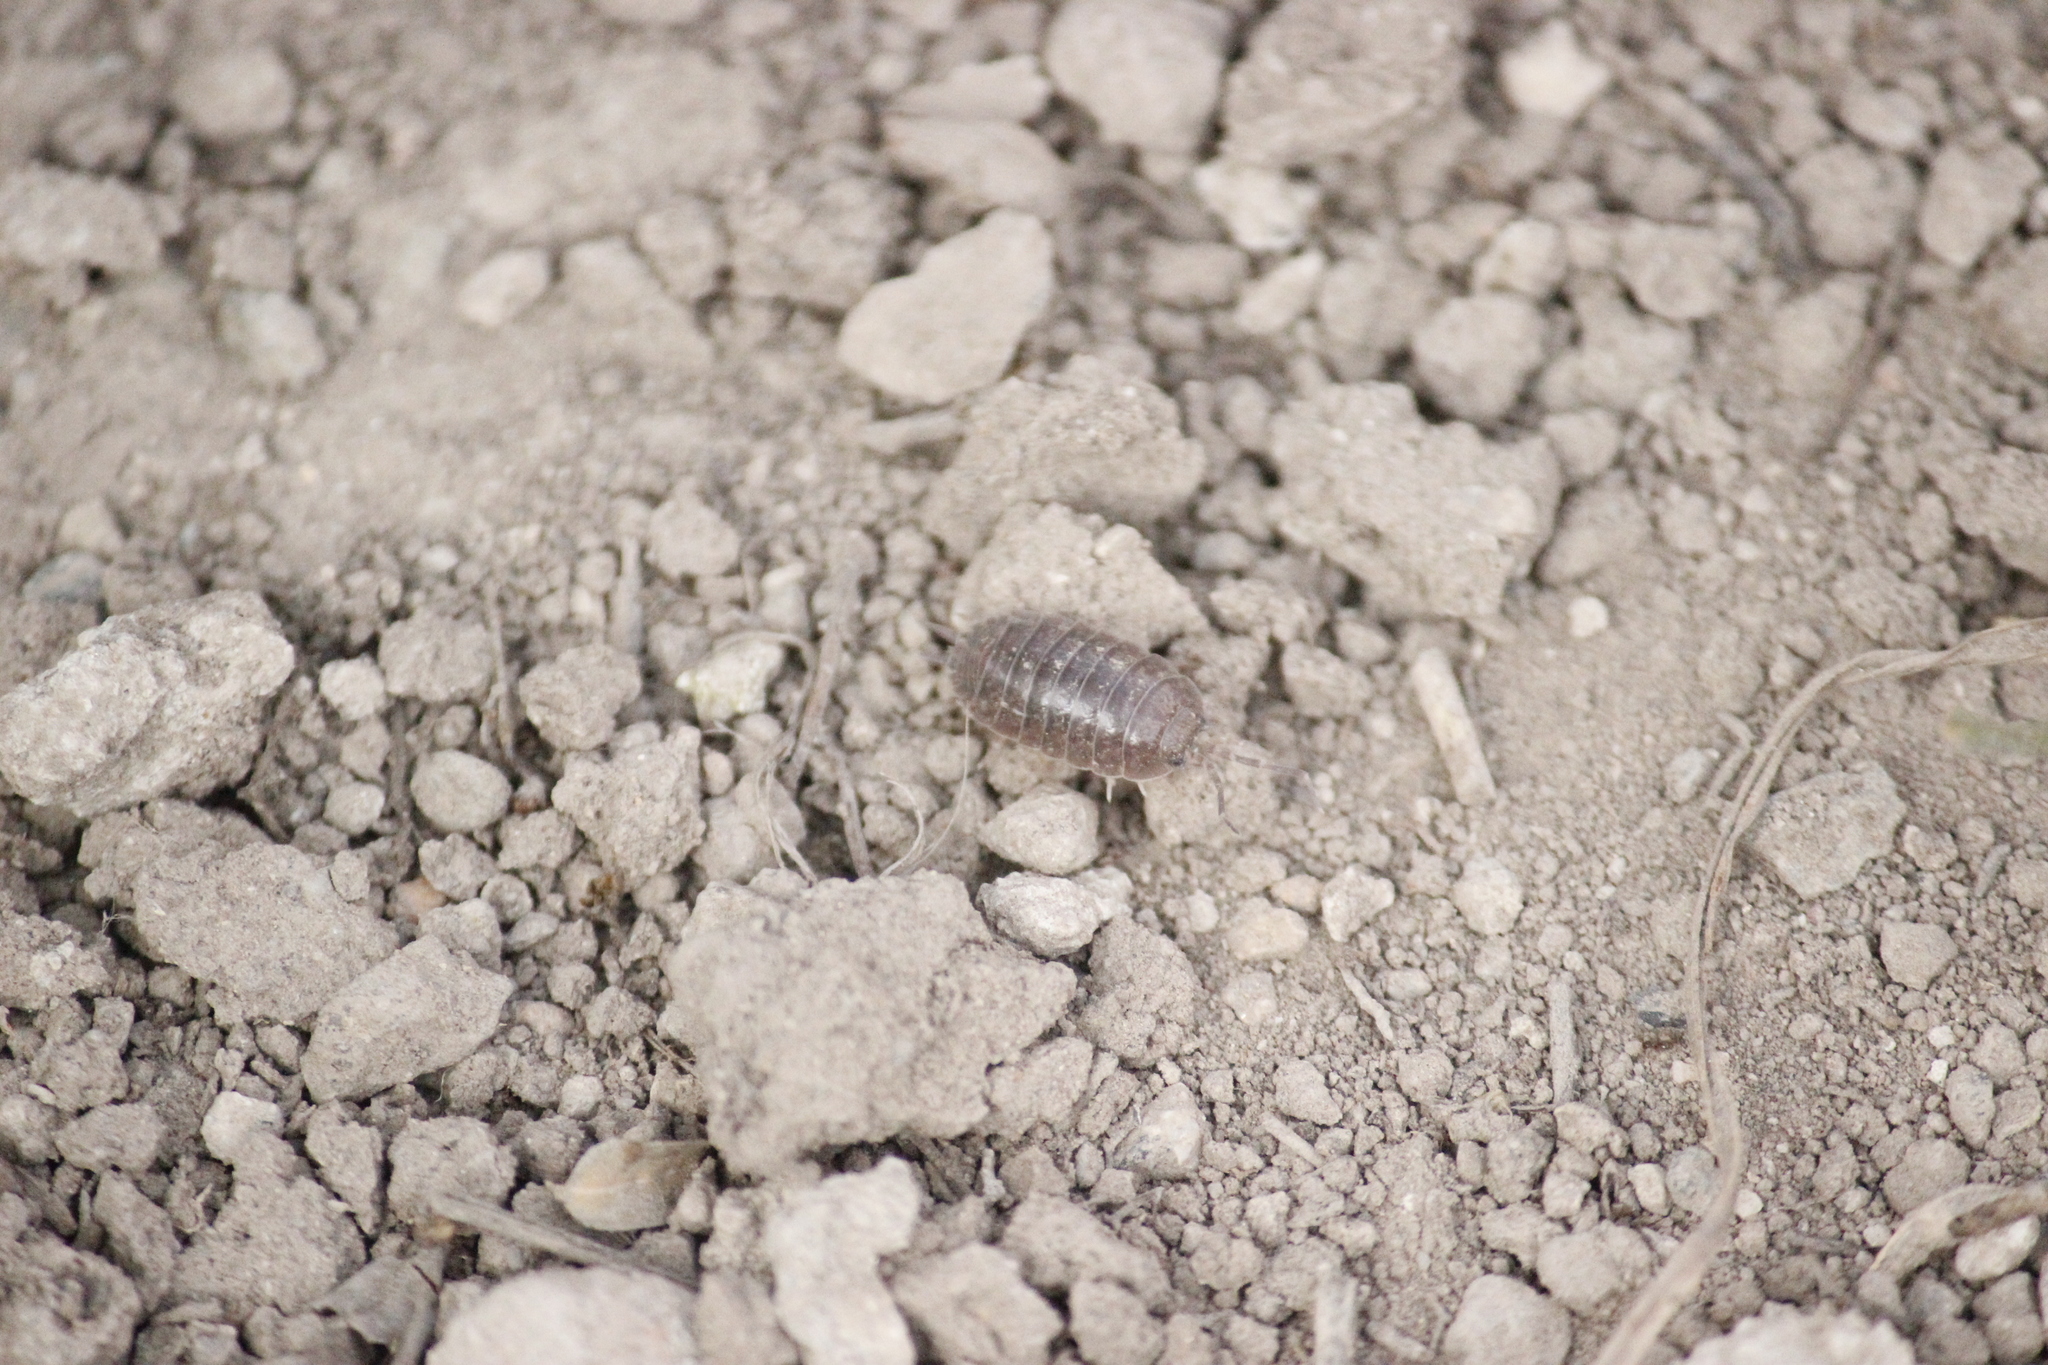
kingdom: Animalia
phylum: Arthropoda
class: Malacostraca
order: Isopoda
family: Porcellionidae
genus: Porcellio
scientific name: Porcellio laevis
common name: Swift woodlouse
